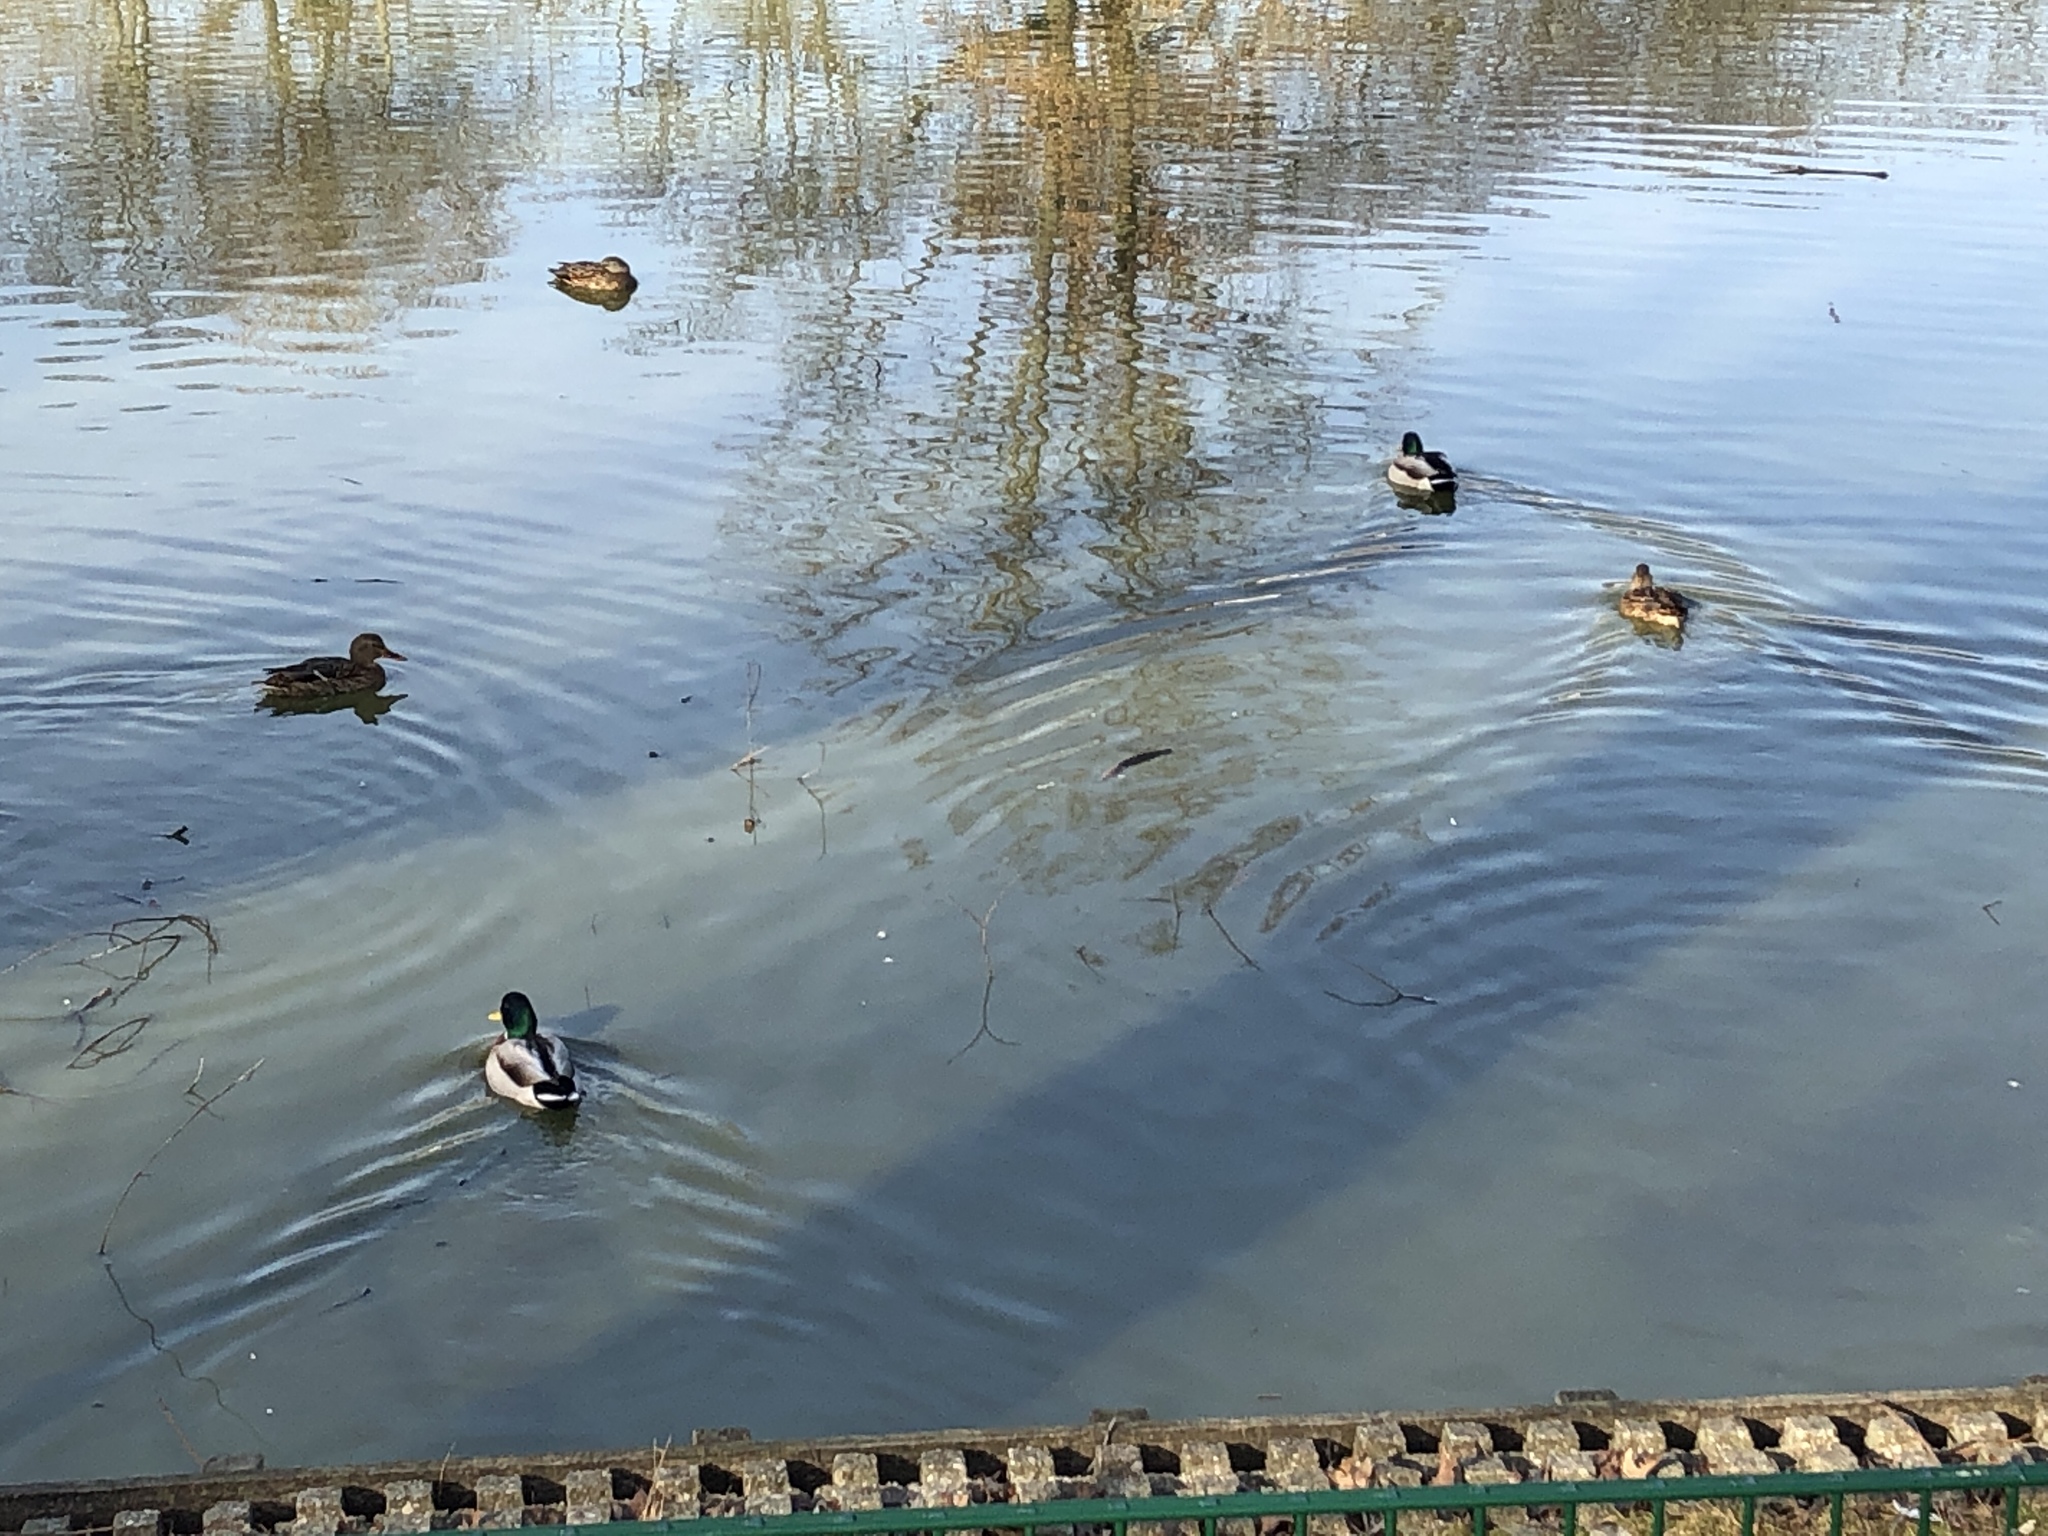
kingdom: Animalia
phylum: Chordata
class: Aves
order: Anseriformes
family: Anatidae
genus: Anas
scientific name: Anas platyrhynchos
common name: Mallard
